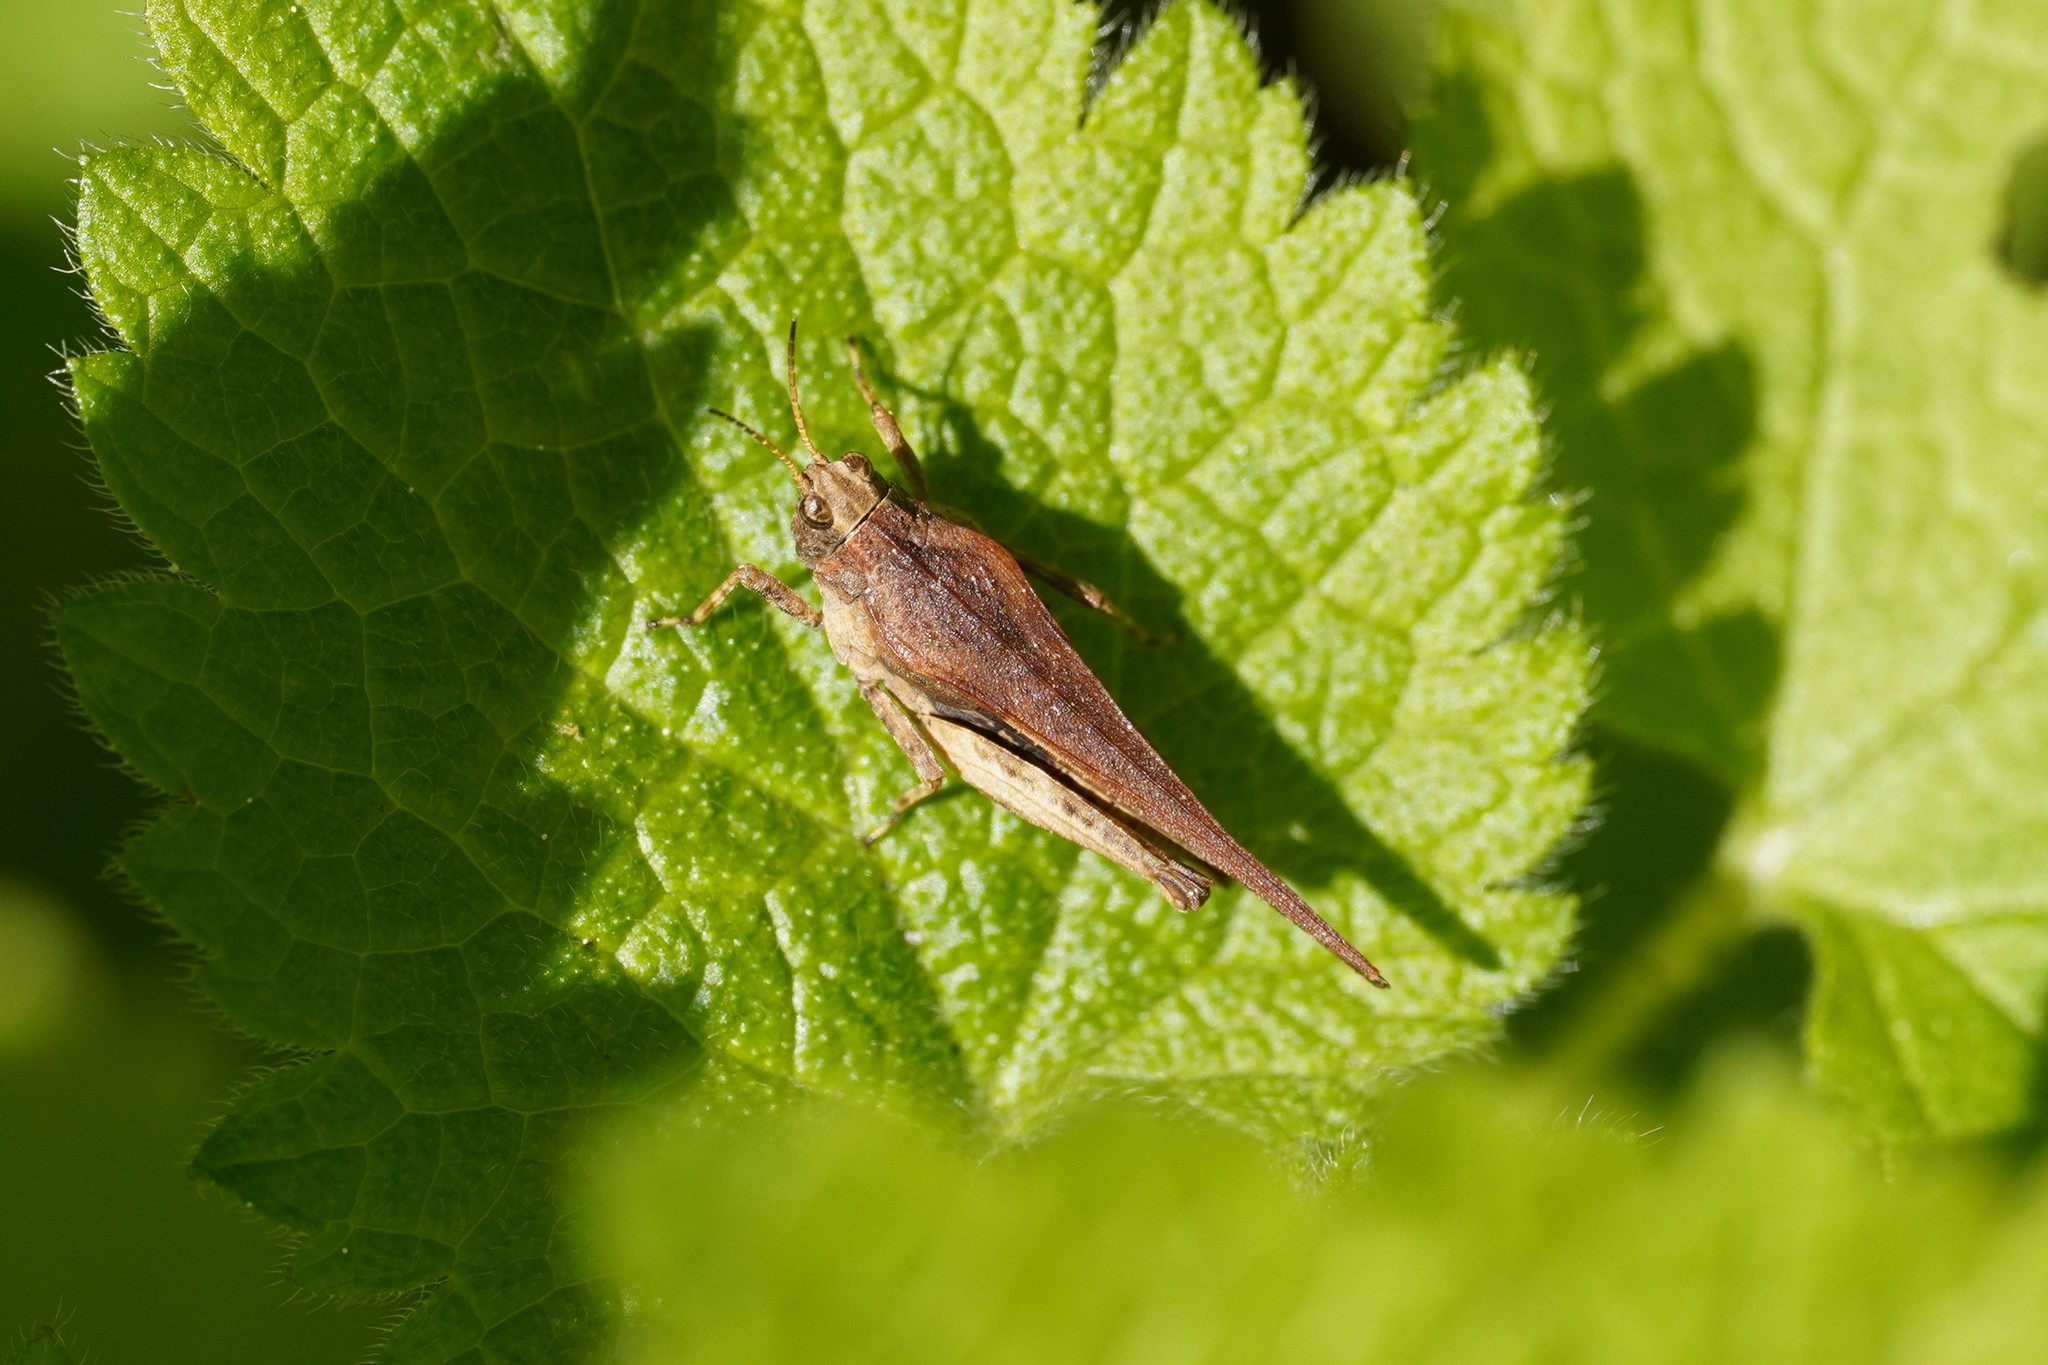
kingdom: Animalia
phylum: Arthropoda
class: Insecta
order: Orthoptera
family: Tetrigidae
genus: Tetrix
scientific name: Tetrix subulata
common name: Slender ground-hopper
